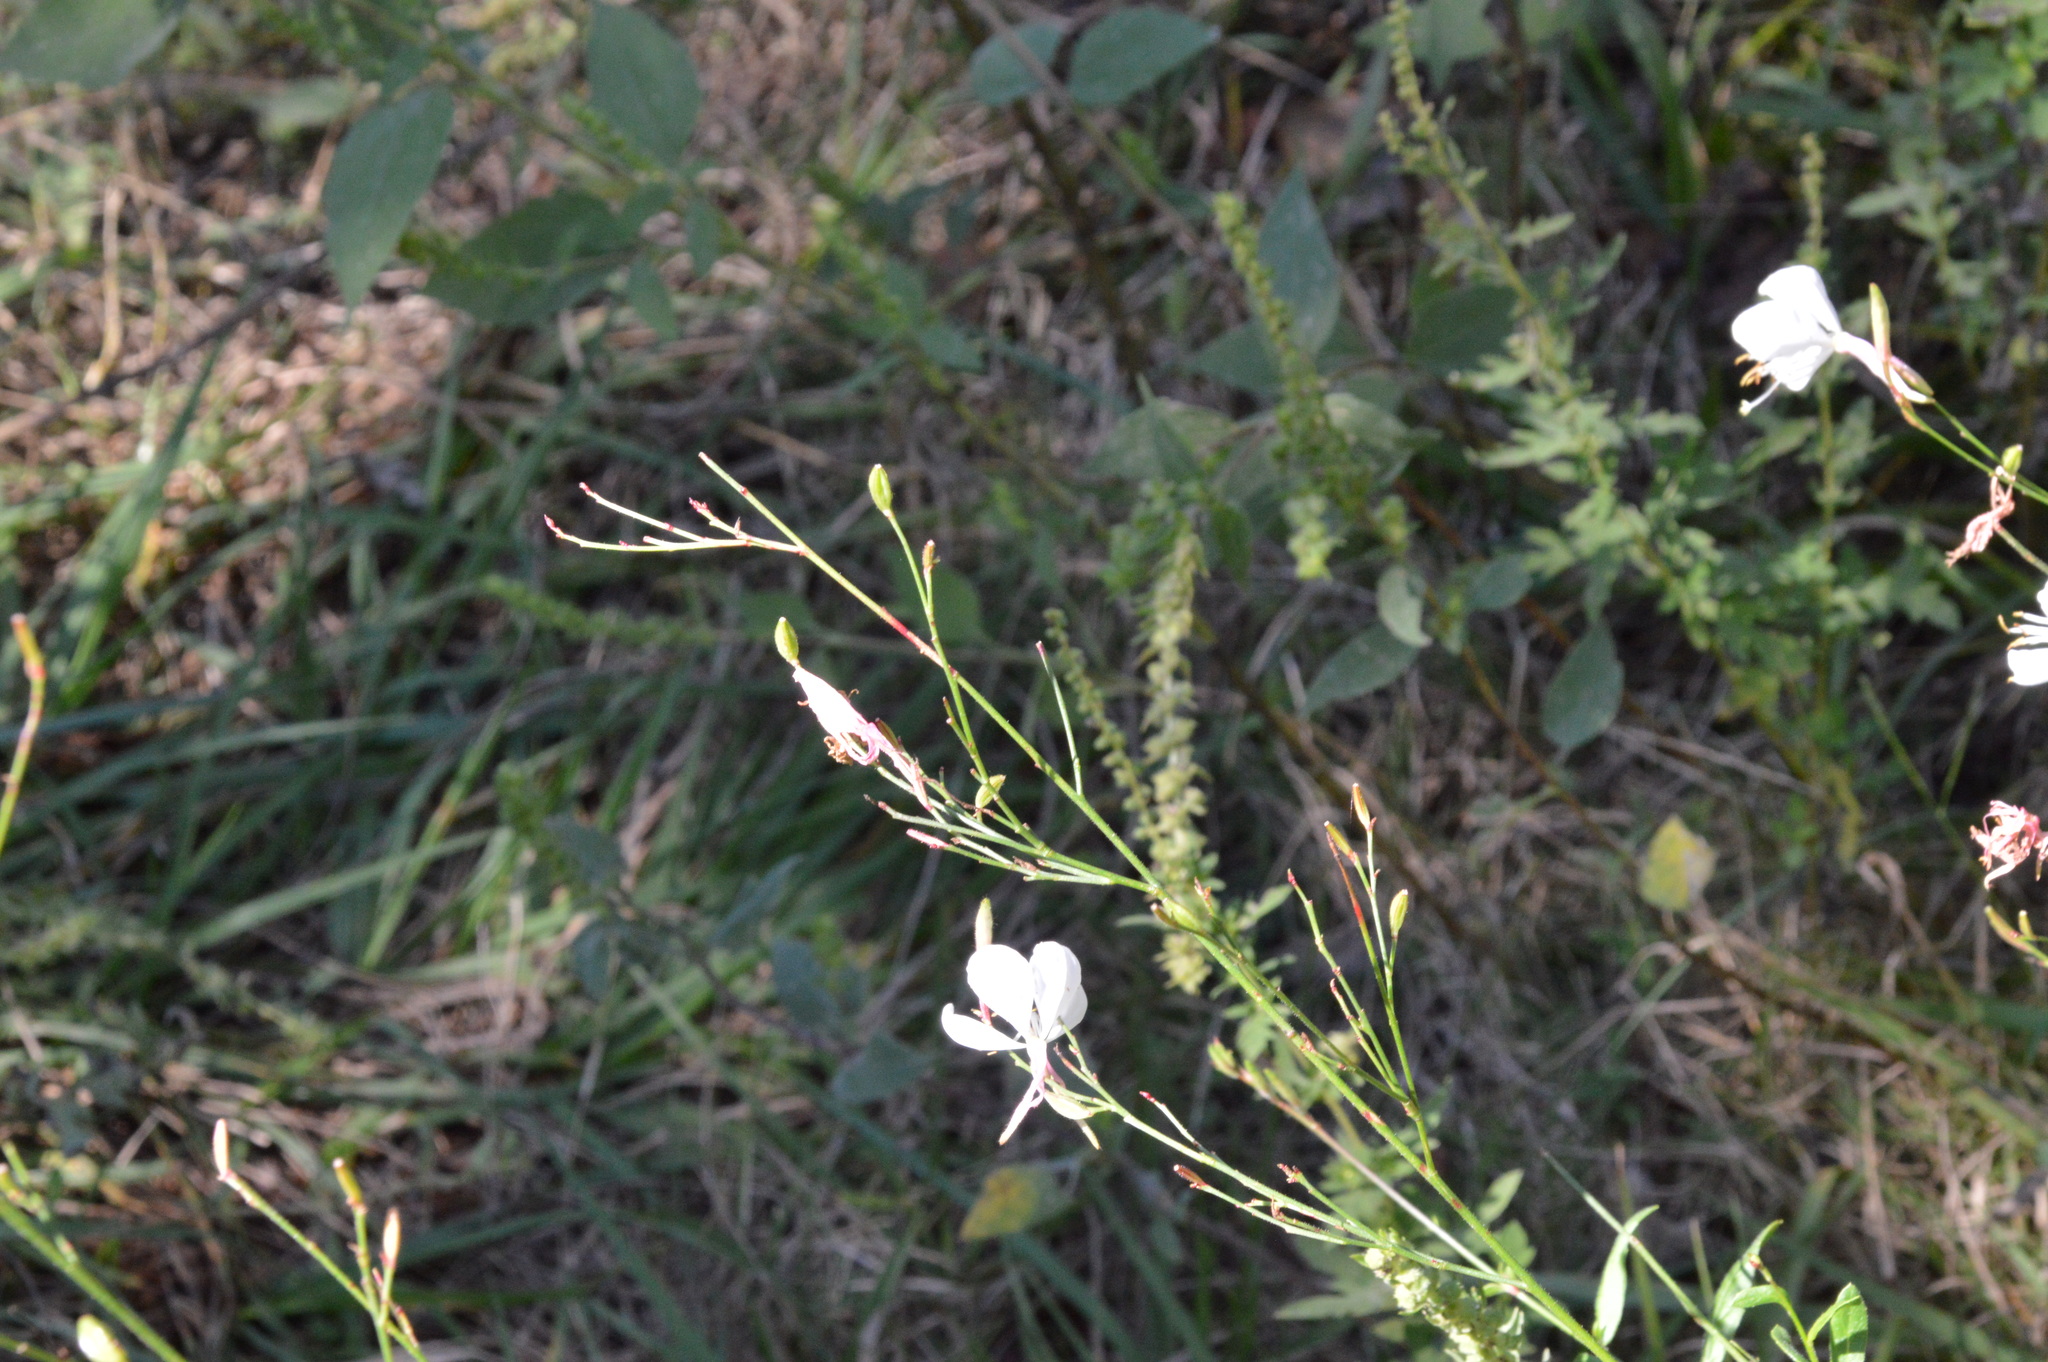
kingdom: Plantae
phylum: Tracheophyta
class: Magnoliopsida
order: Myrtales
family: Onagraceae
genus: Oenothera
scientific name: Oenothera lindheimeri
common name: Lindheimer's beeblossom
